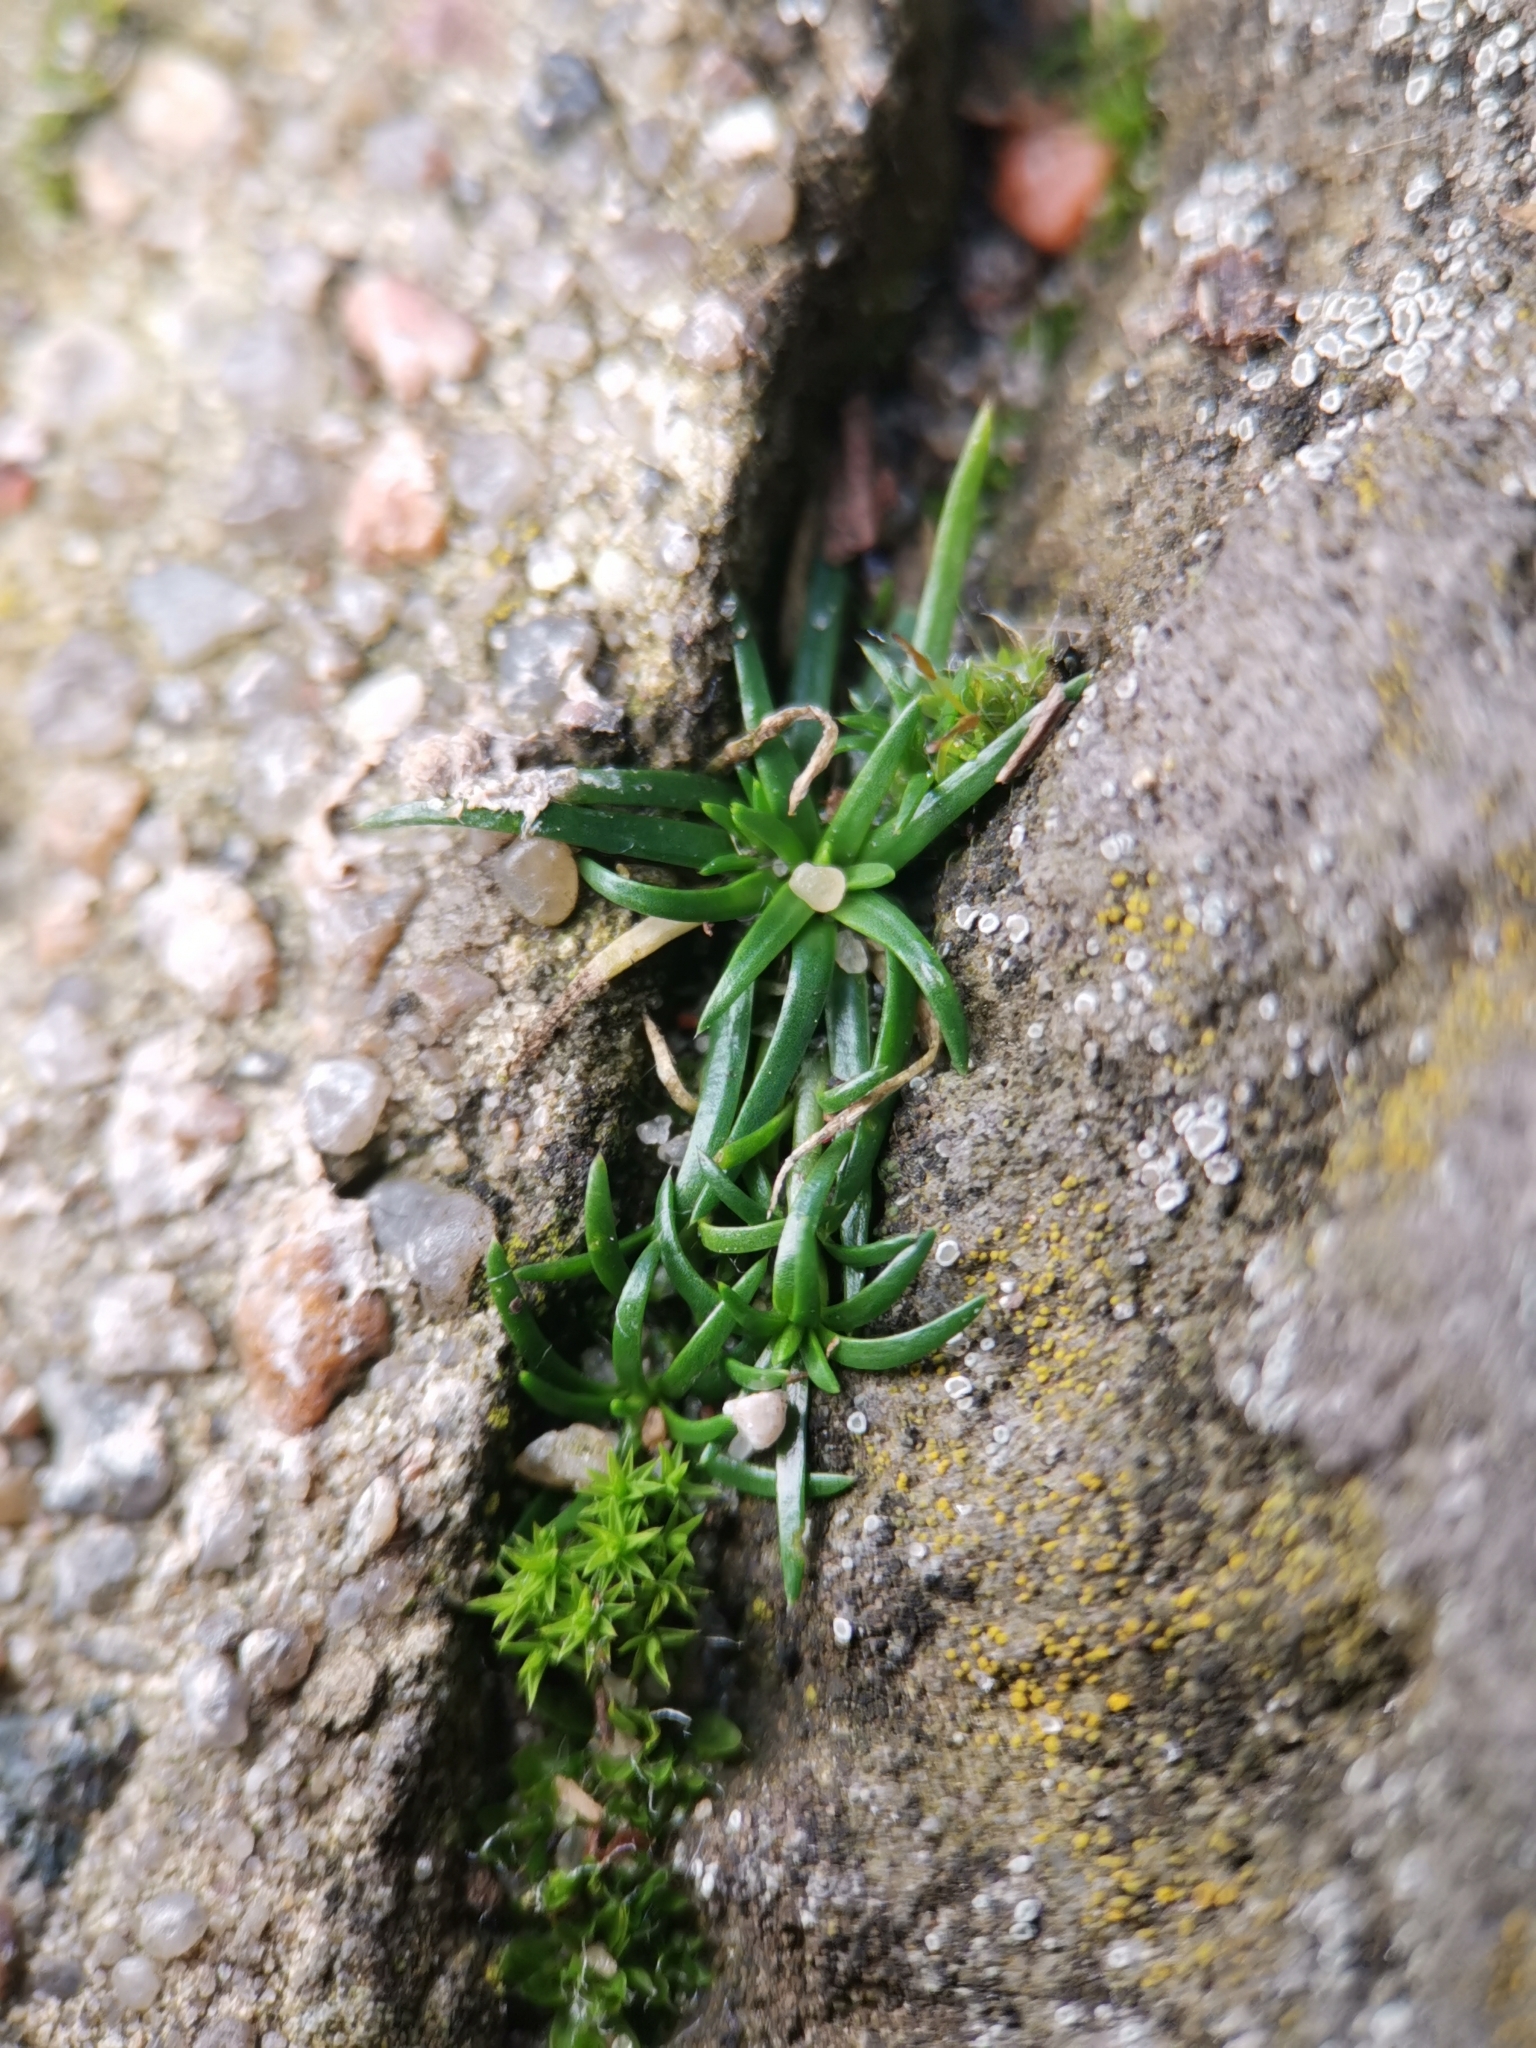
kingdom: Plantae
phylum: Tracheophyta
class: Magnoliopsida
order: Caryophyllales
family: Caryophyllaceae
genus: Sagina
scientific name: Sagina procumbens
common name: Procumbent pearlwort
